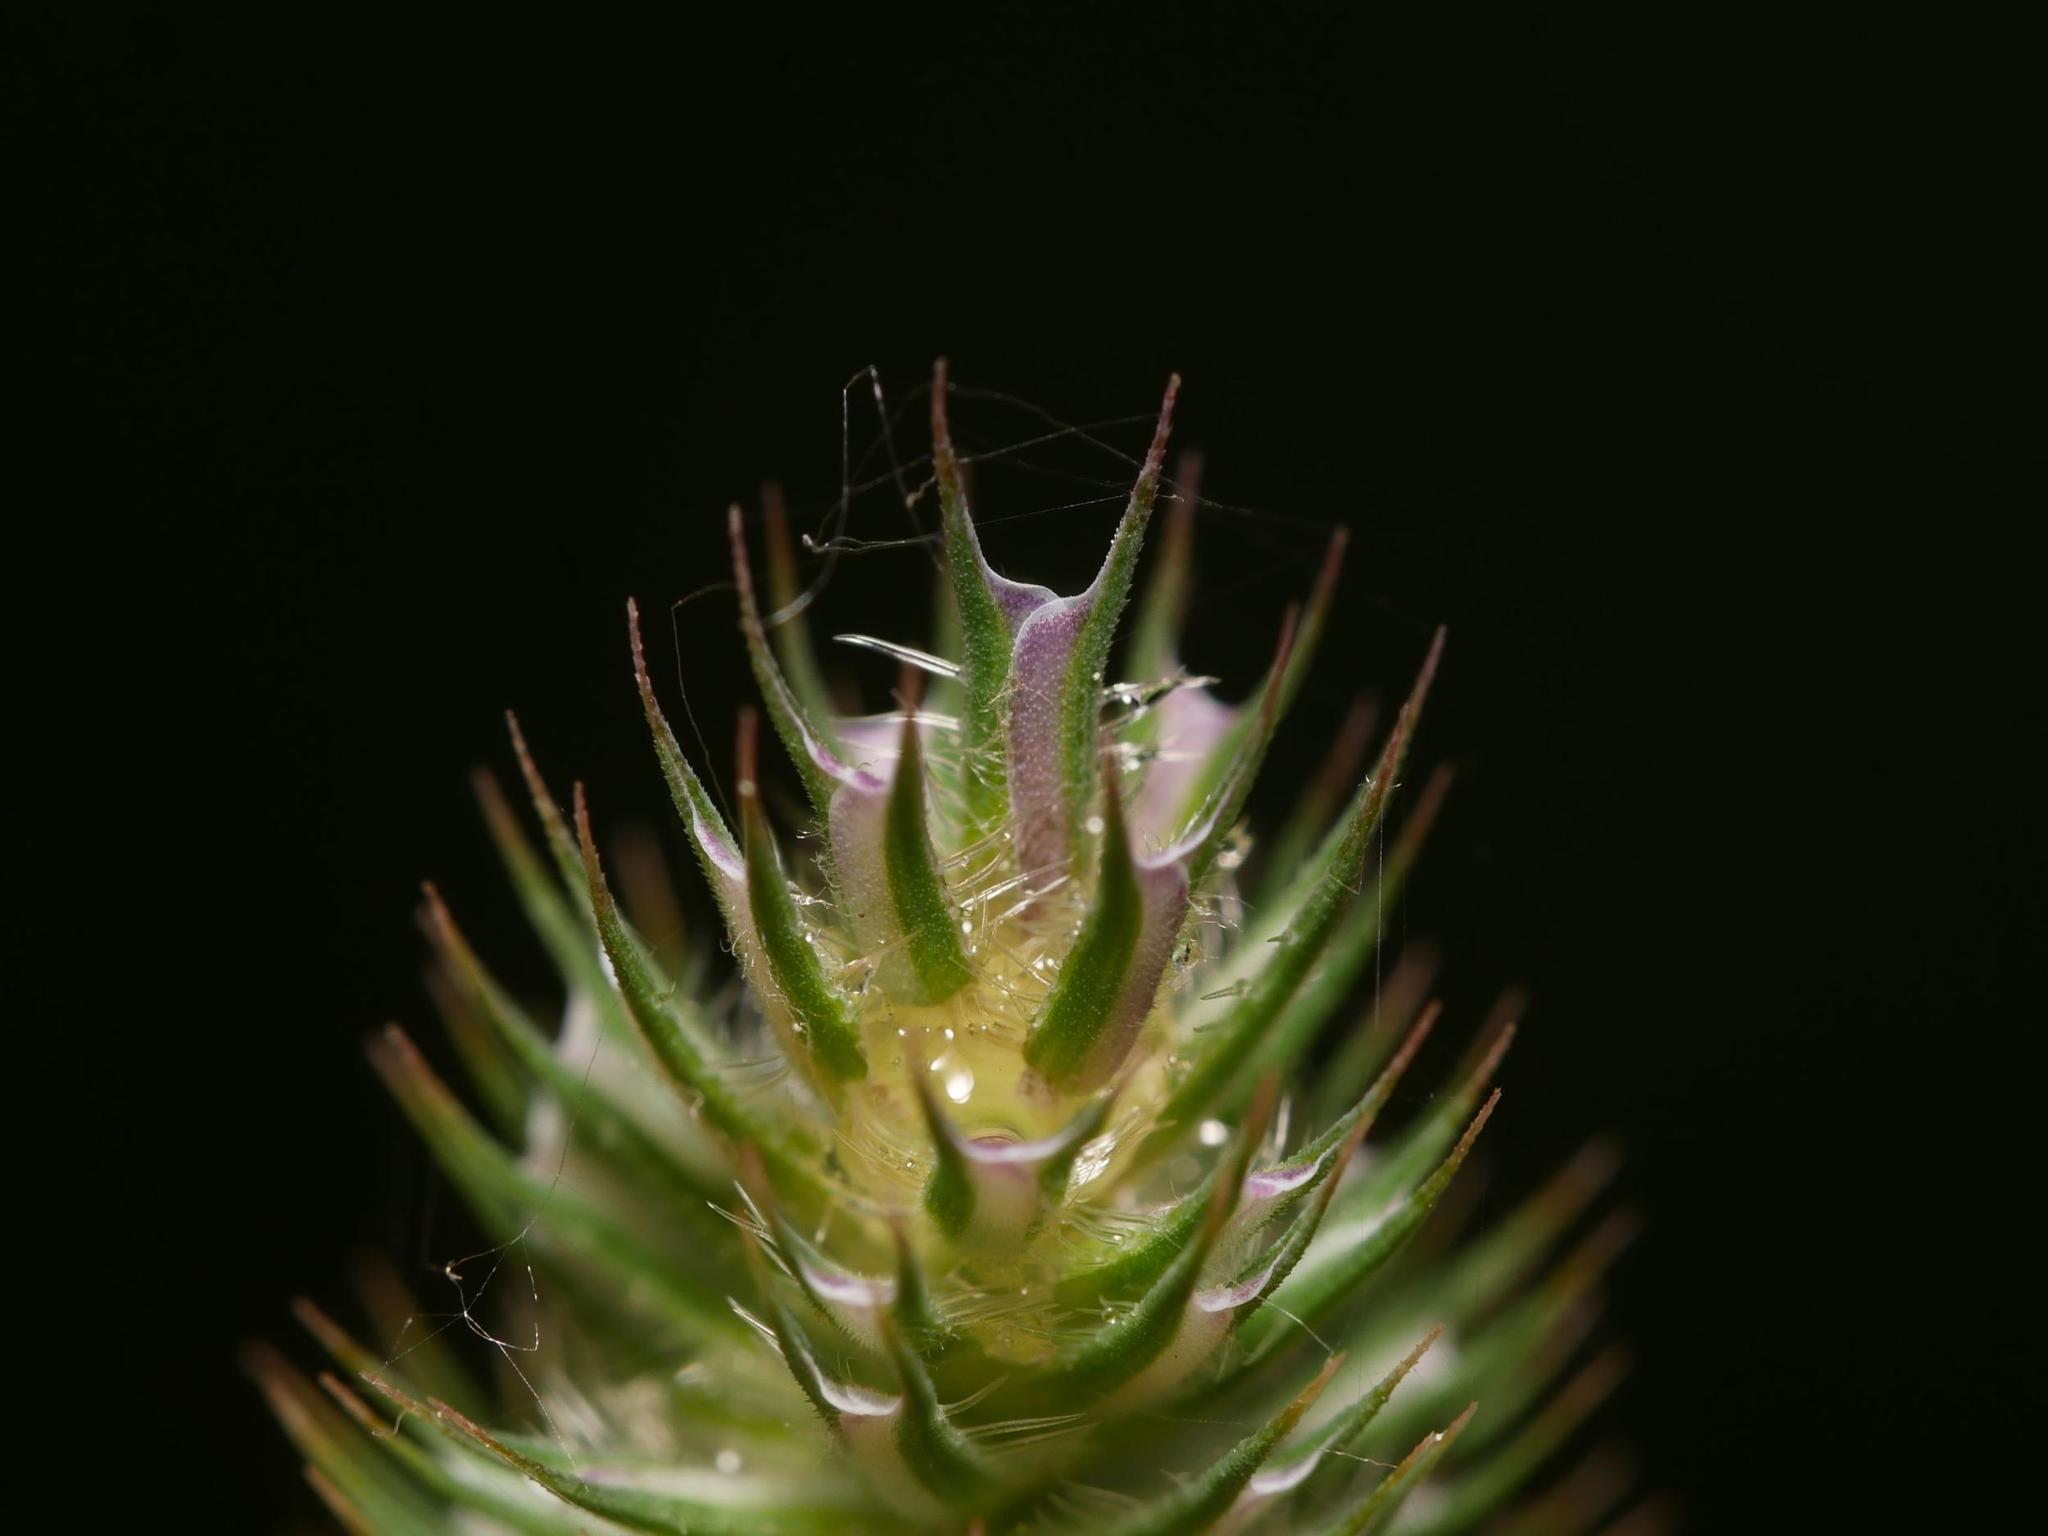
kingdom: Plantae
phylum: Tracheophyta
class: Liliopsida
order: Poales
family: Poaceae
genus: Phleum
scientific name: Phleum pratense
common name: Timothy grass
